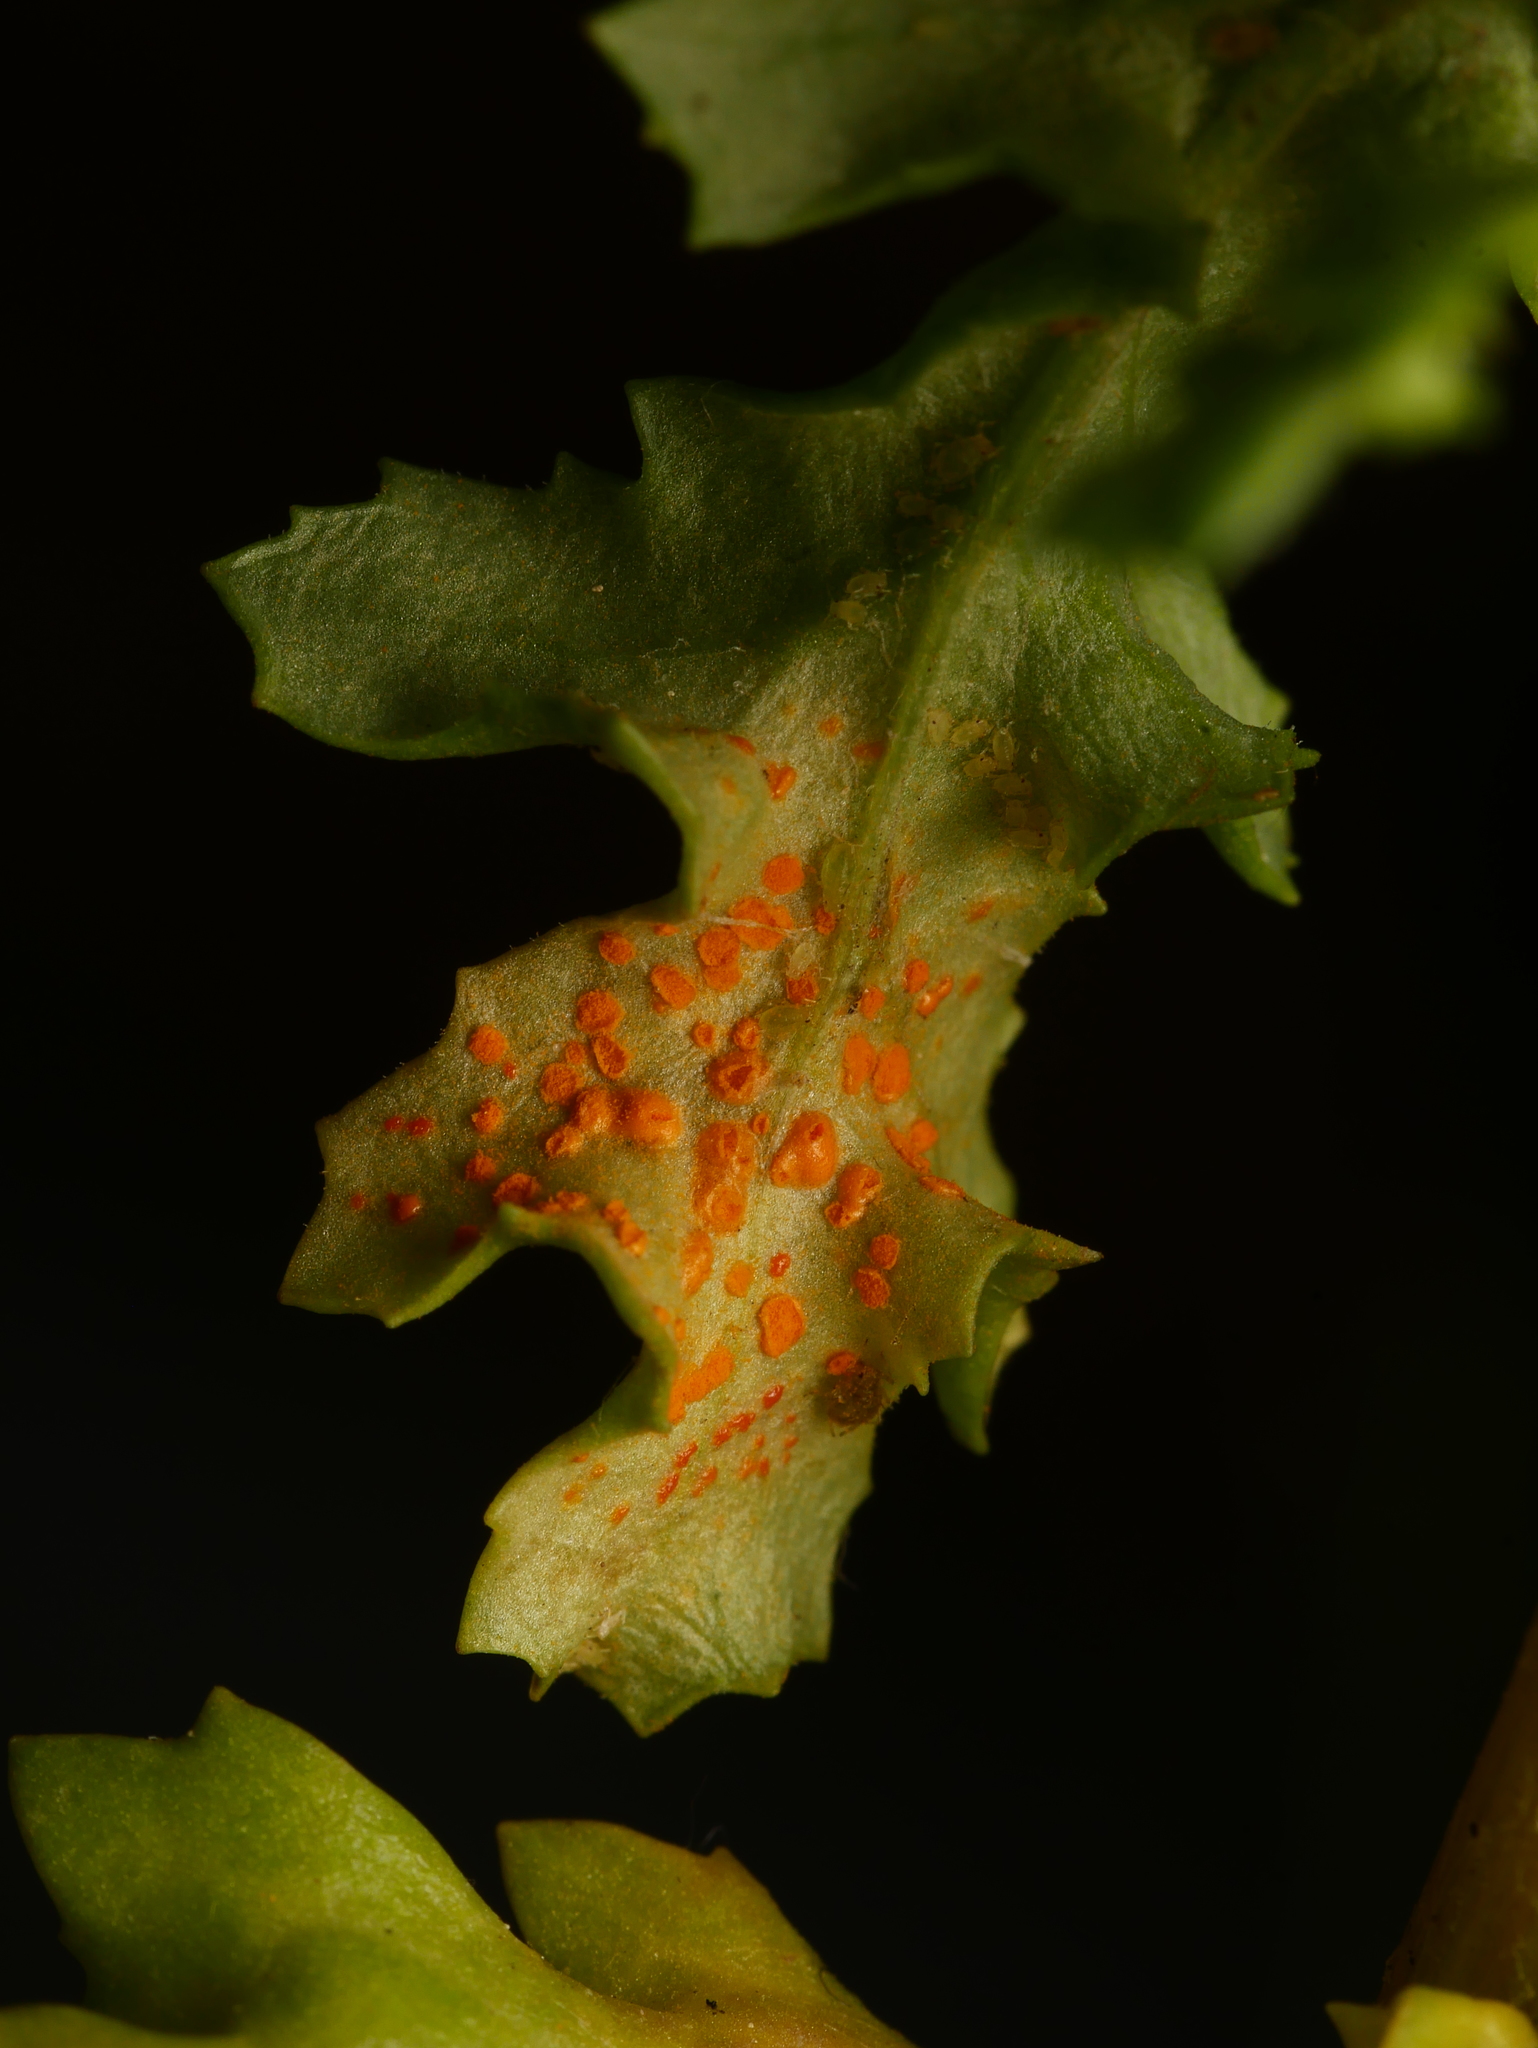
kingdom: Fungi
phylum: Basidiomycota
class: Pucciniomycetes
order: Pucciniales
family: Pucciniaceae
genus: Puccinia
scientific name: Puccinia lagenophorae
